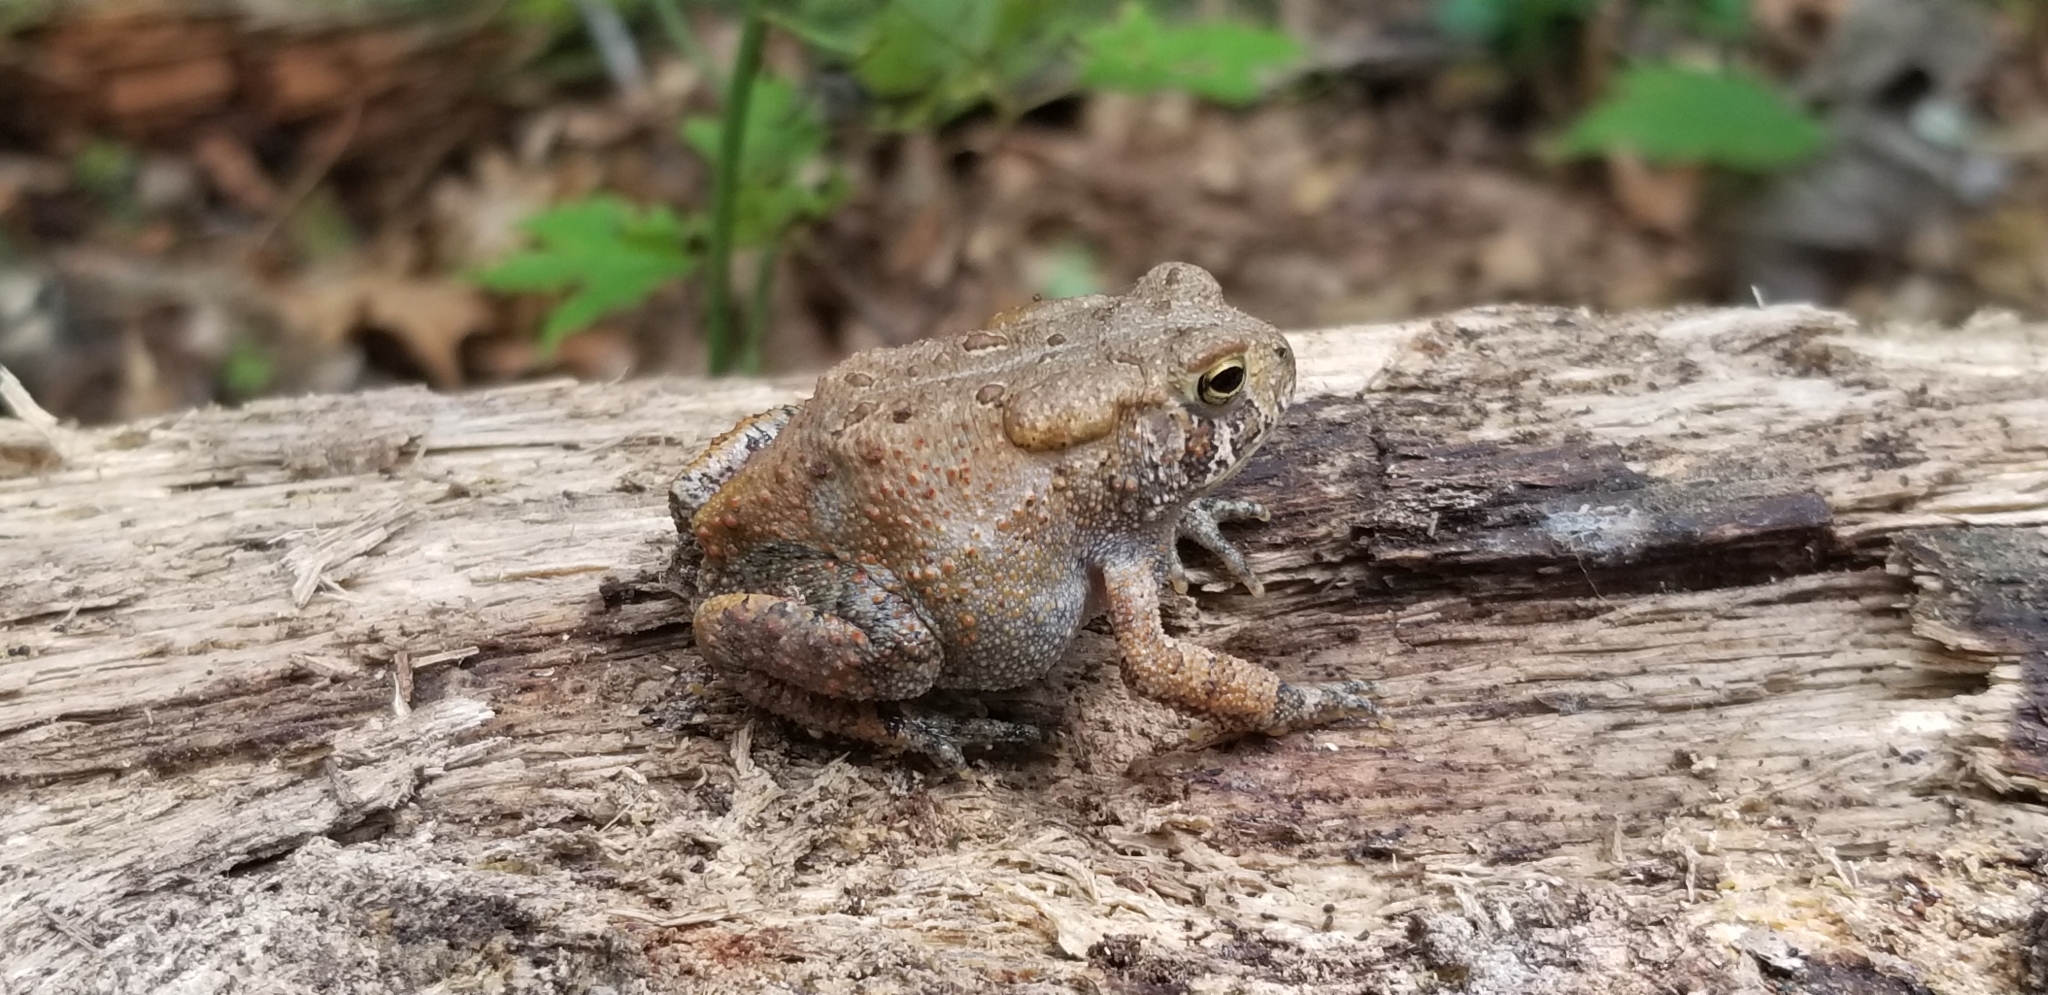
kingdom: Animalia
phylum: Chordata
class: Amphibia
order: Anura
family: Bufonidae
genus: Anaxyrus
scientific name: Anaxyrus americanus
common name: American toad
